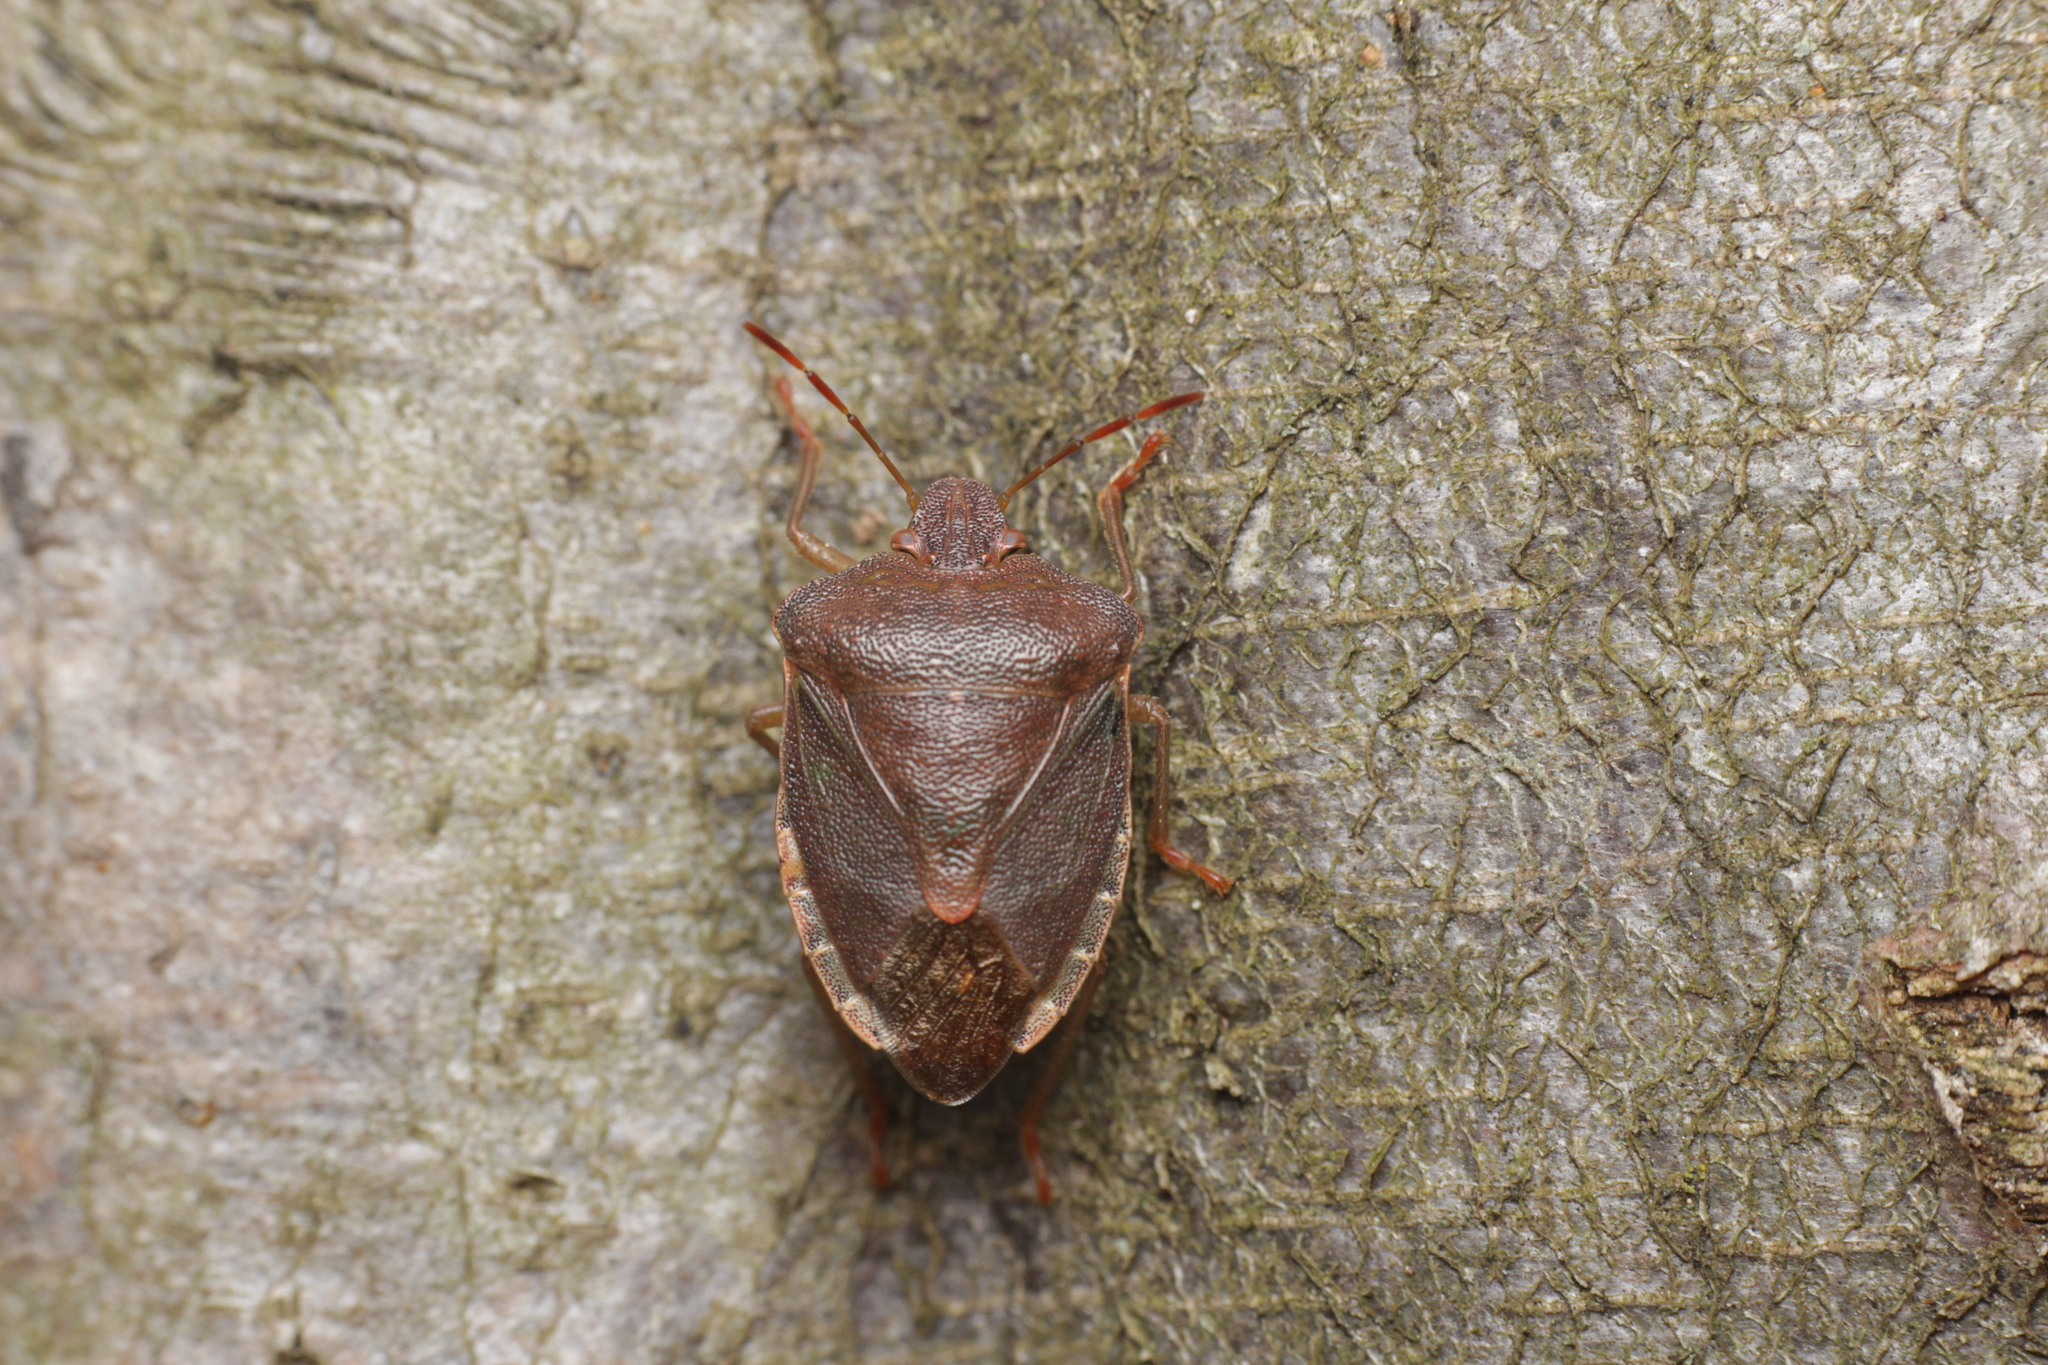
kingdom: Animalia
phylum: Arthropoda
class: Insecta
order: Hemiptera
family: Pentatomidae
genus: Palomena
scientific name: Palomena prasina
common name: Green shieldbug
